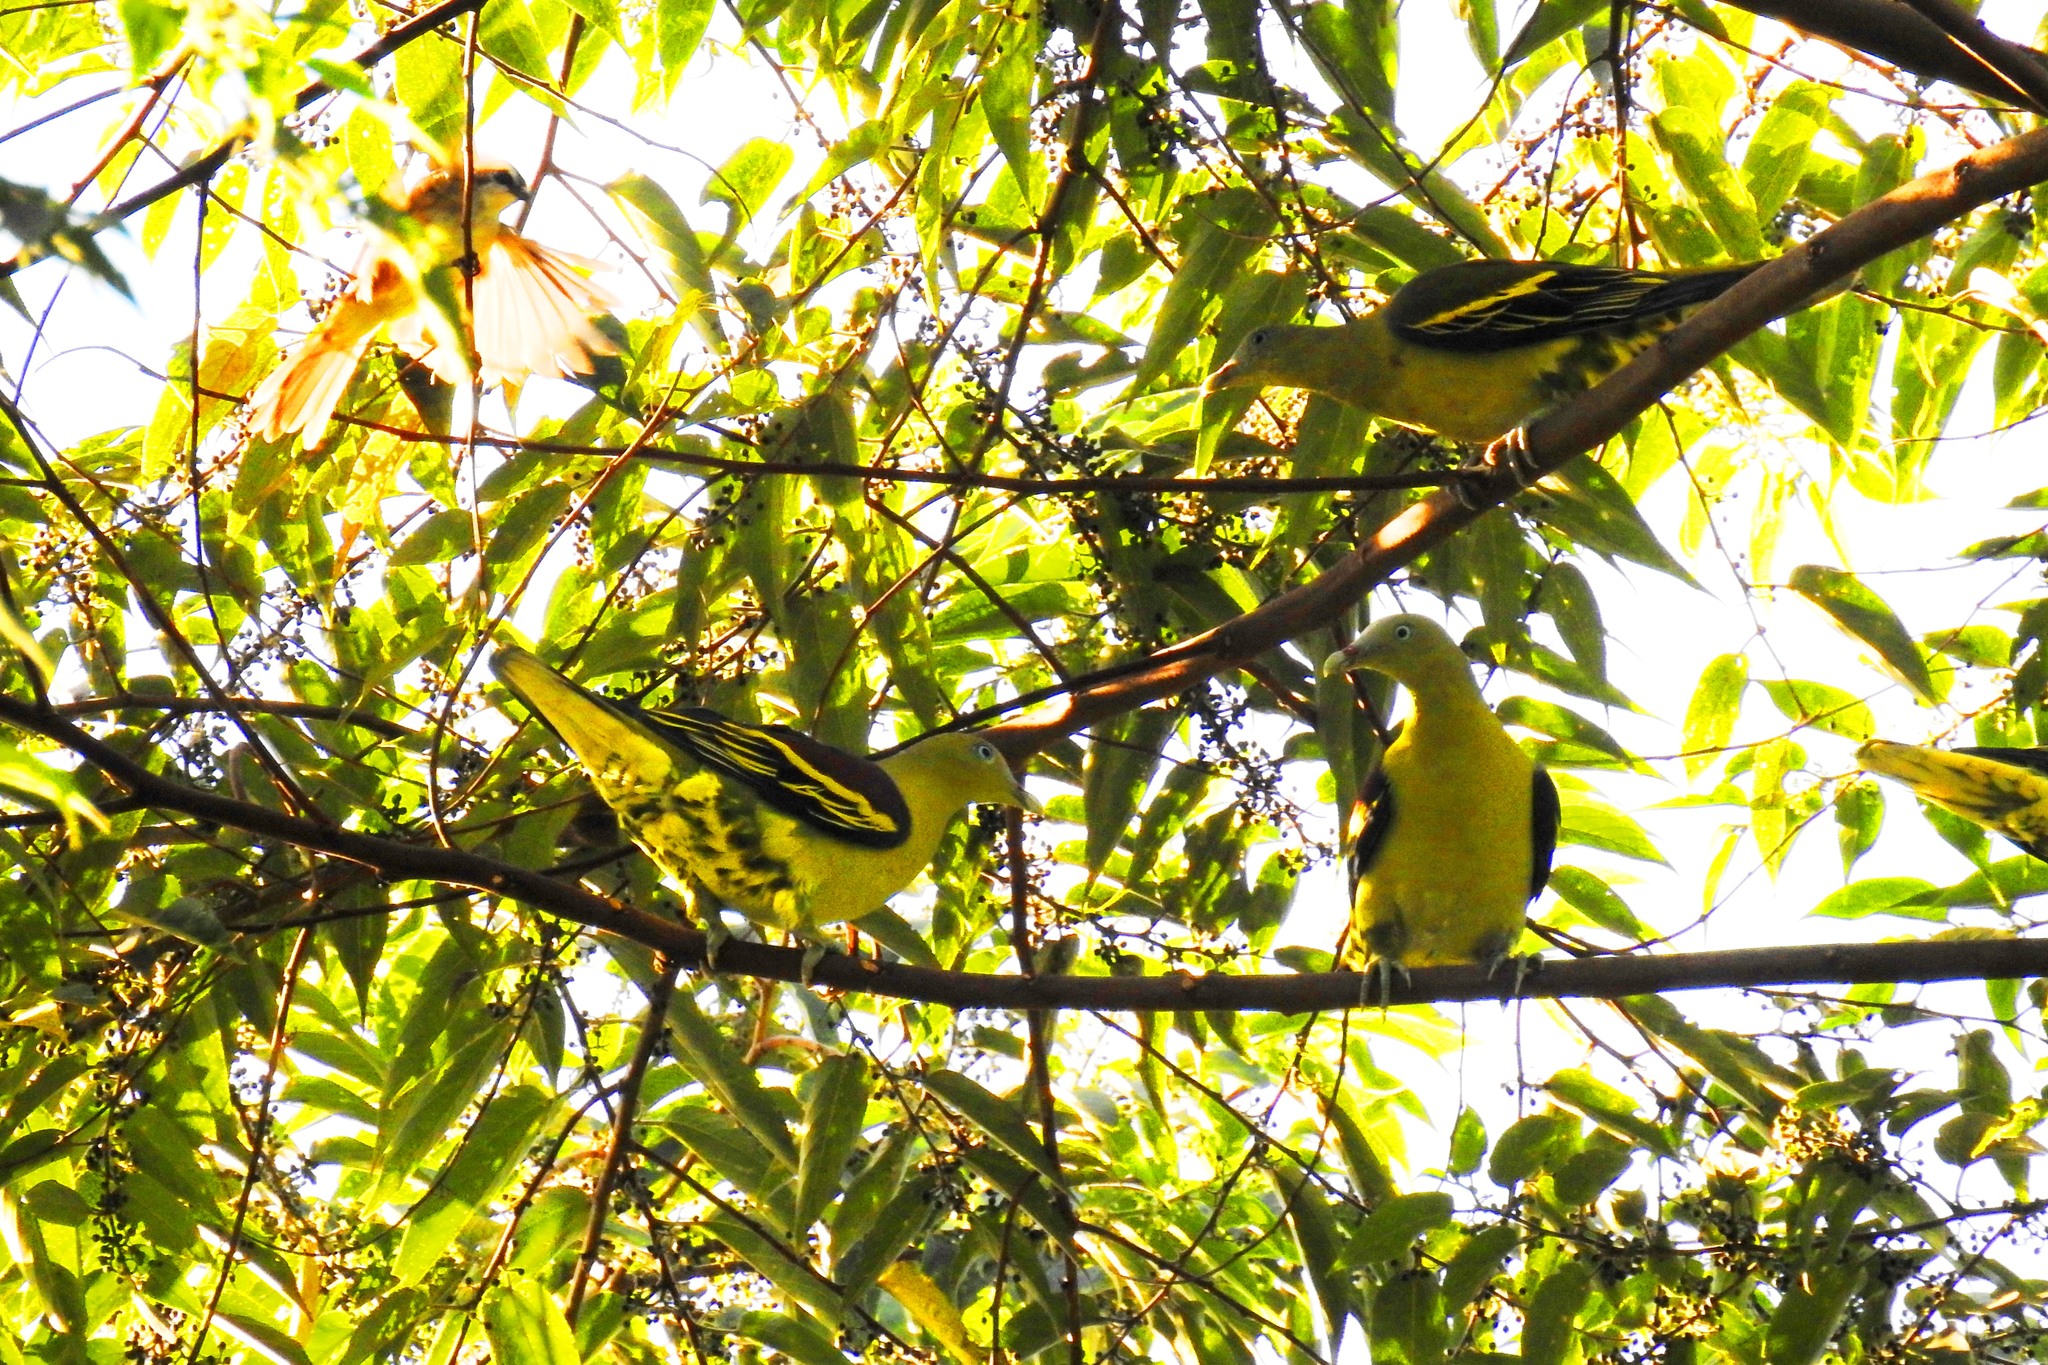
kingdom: Animalia
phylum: Chordata
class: Aves
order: Columbiformes
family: Columbidae
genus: Treron
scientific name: Treron axillaris
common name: Philippine green pigeon
